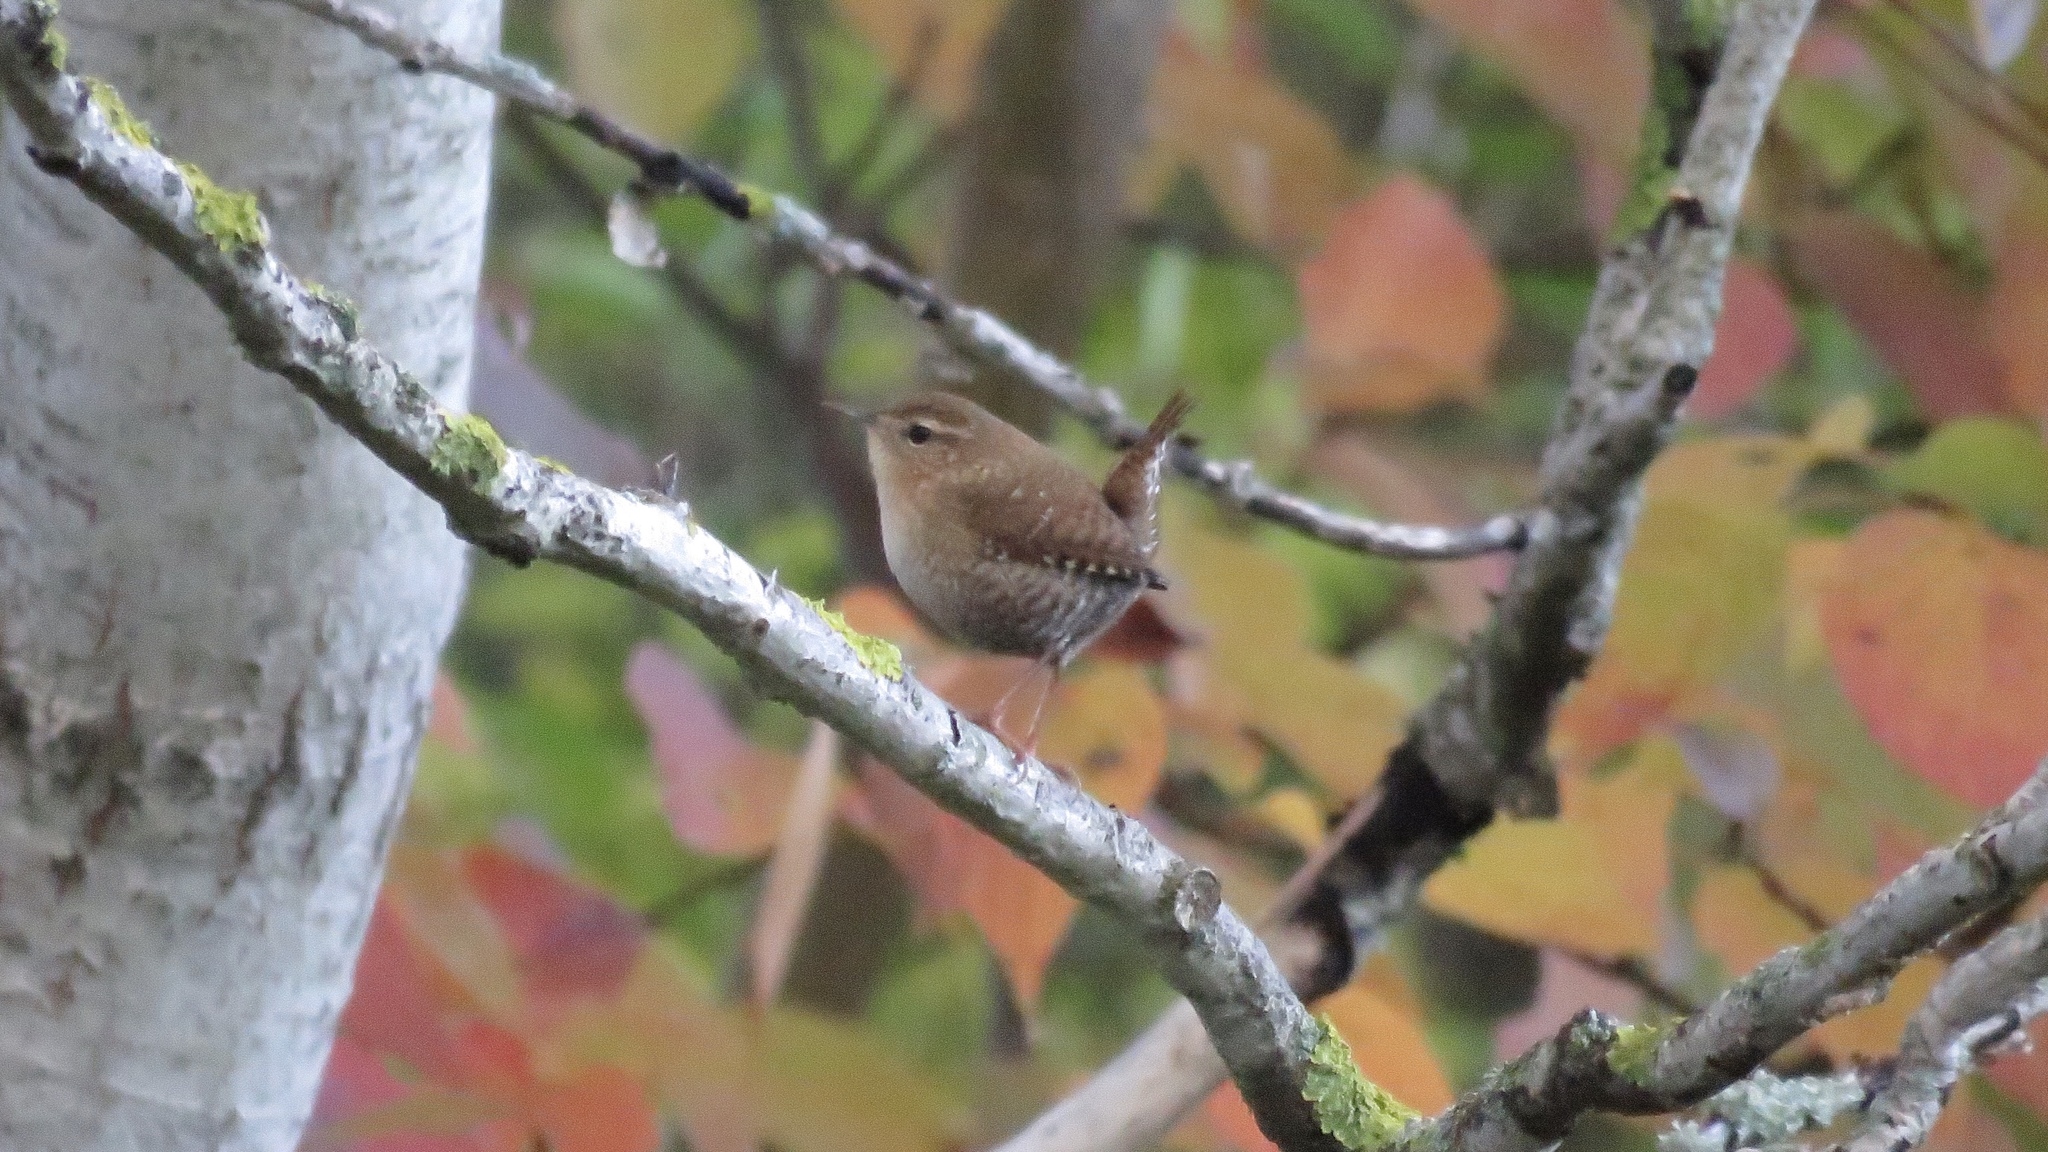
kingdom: Animalia
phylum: Chordata
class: Aves
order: Passeriformes
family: Troglodytidae
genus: Troglodytes
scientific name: Troglodytes hiemalis
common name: Winter wren
